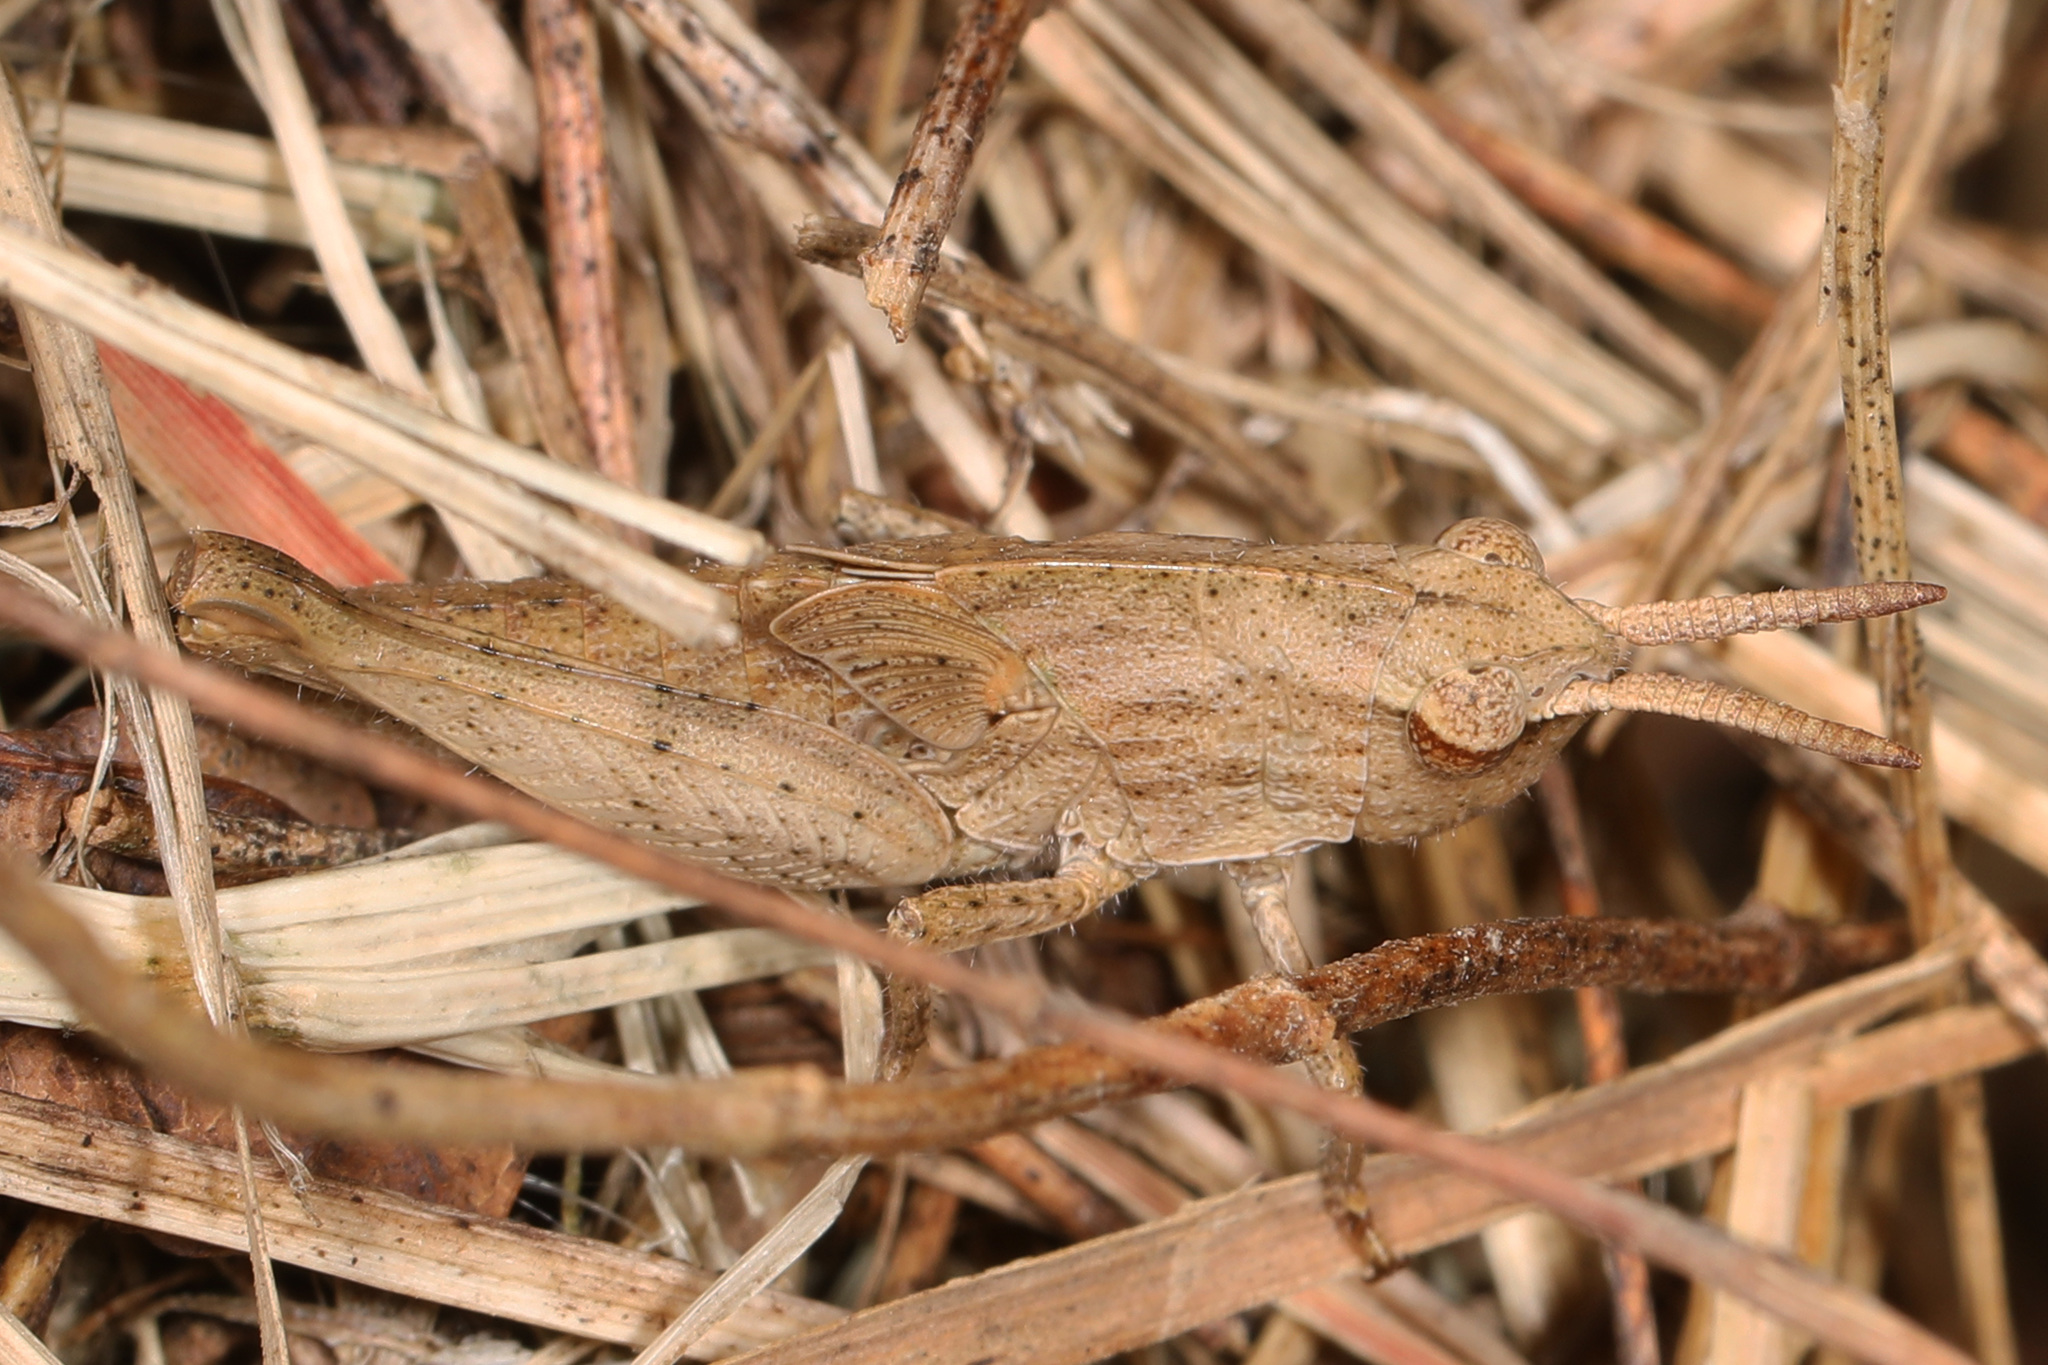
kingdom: Animalia
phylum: Arthropoda
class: Insecta
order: Orthoptera
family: Acrididae
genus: Chortophaga
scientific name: Chortophaga viridifasciata
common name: Green-striped grasshopper
